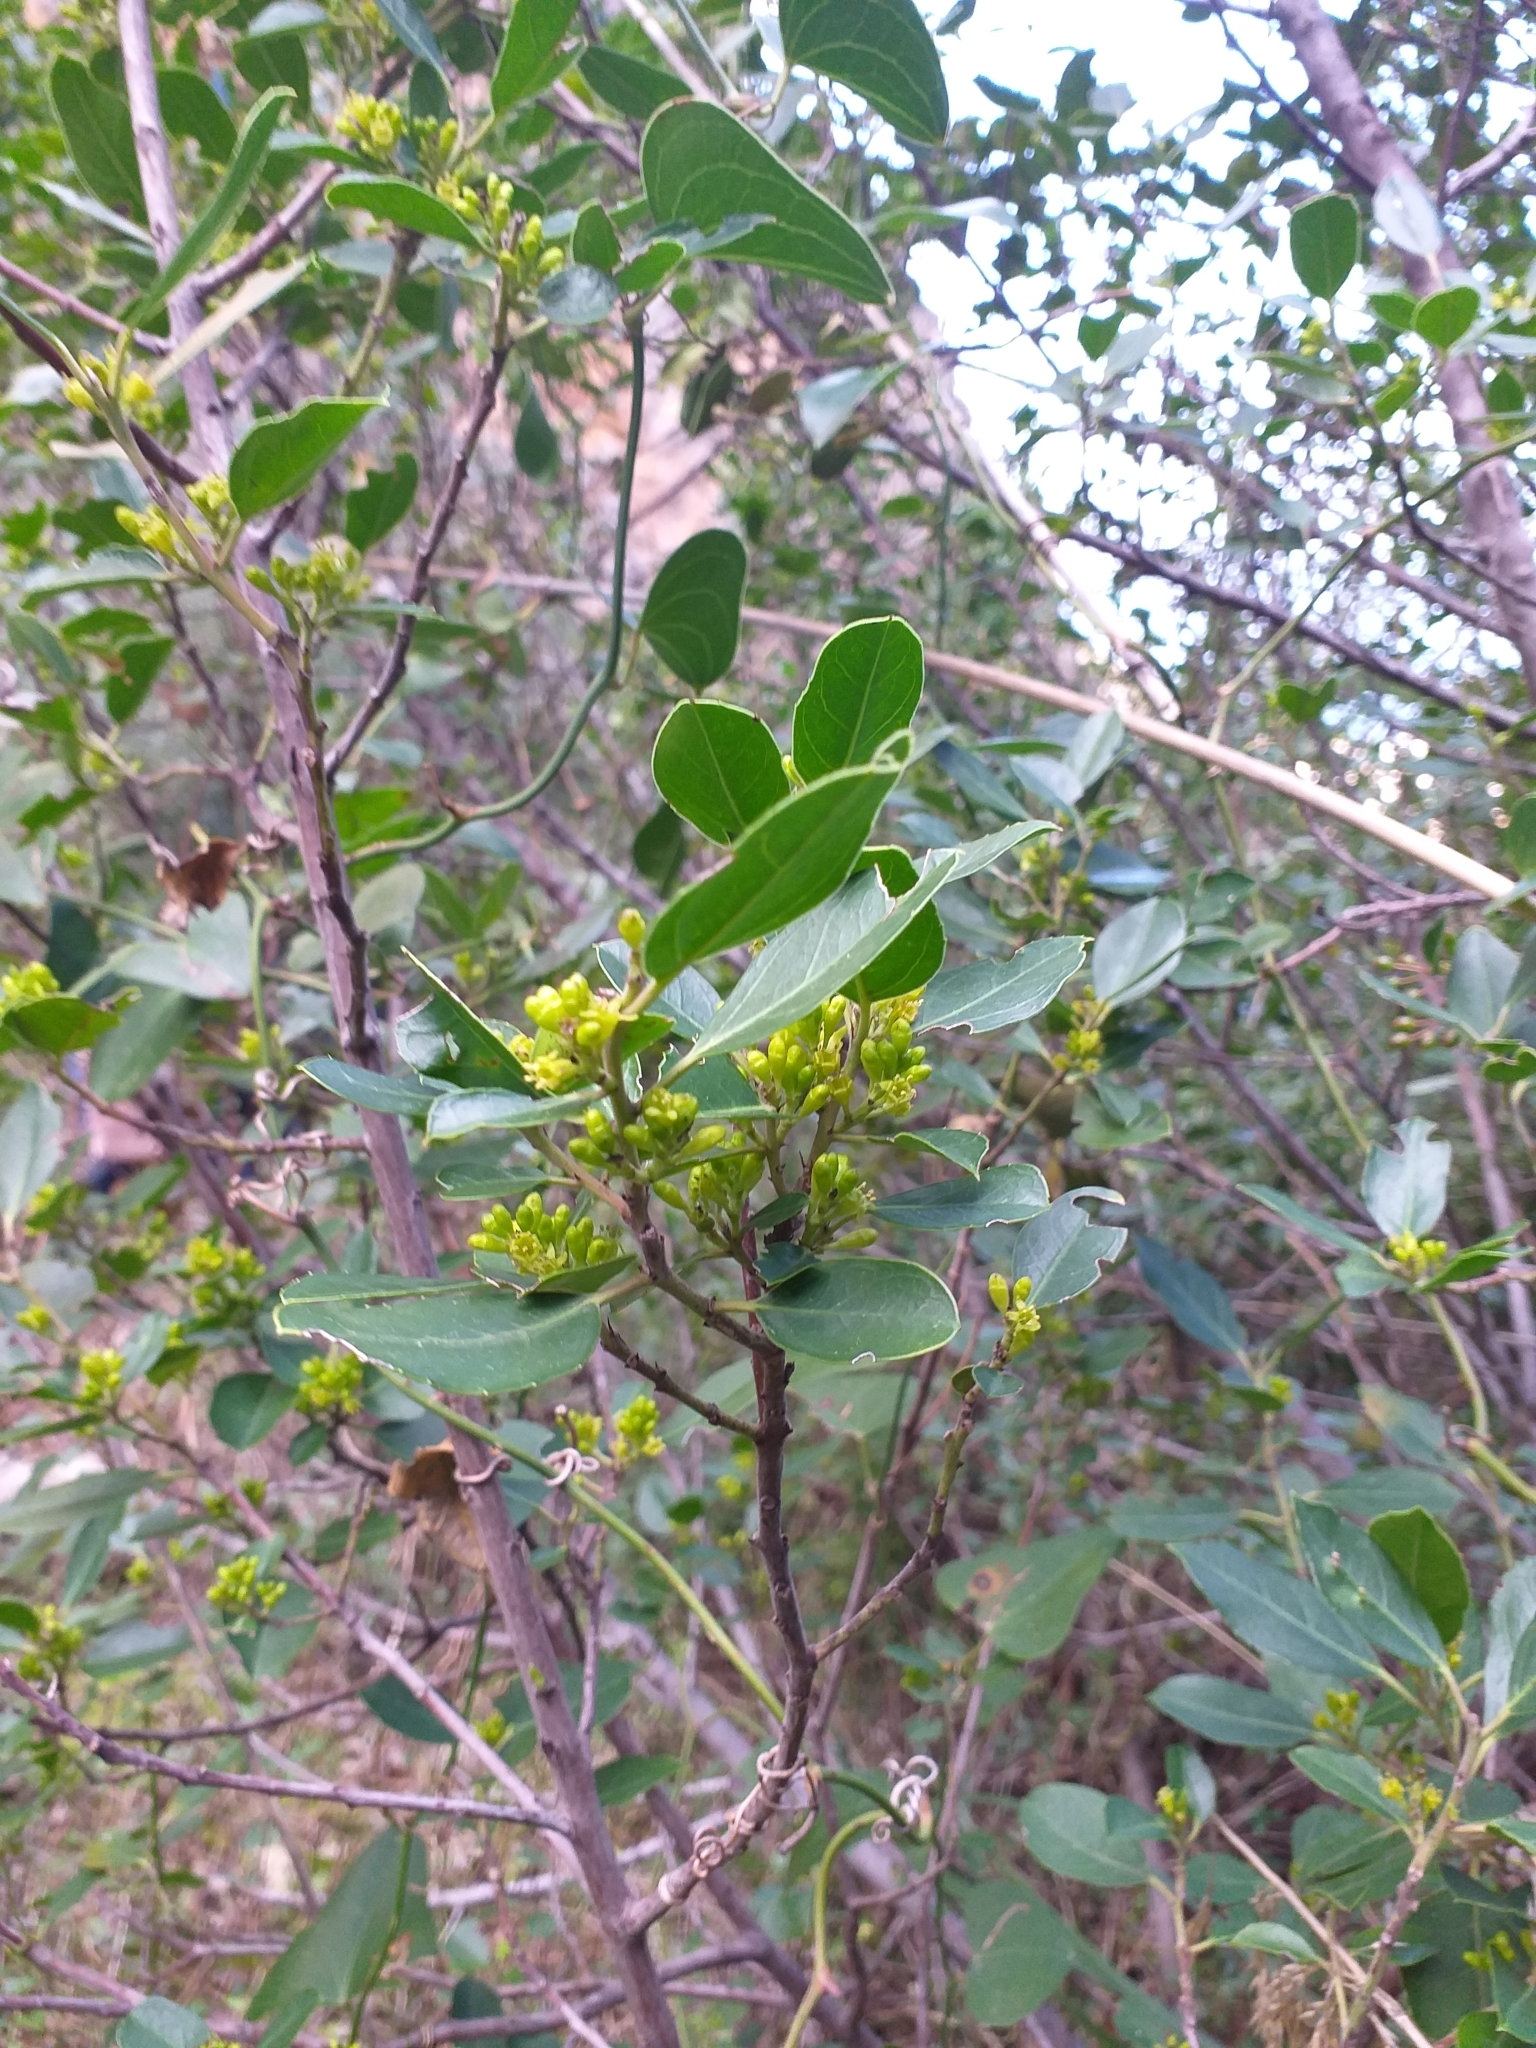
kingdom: Plantae
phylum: Tracheophyta
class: Magnoliopsida
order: Rosales
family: Rhamnaceae
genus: Rhamnus
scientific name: Rhamnus alaternus
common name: Mediterranean buckthorn
